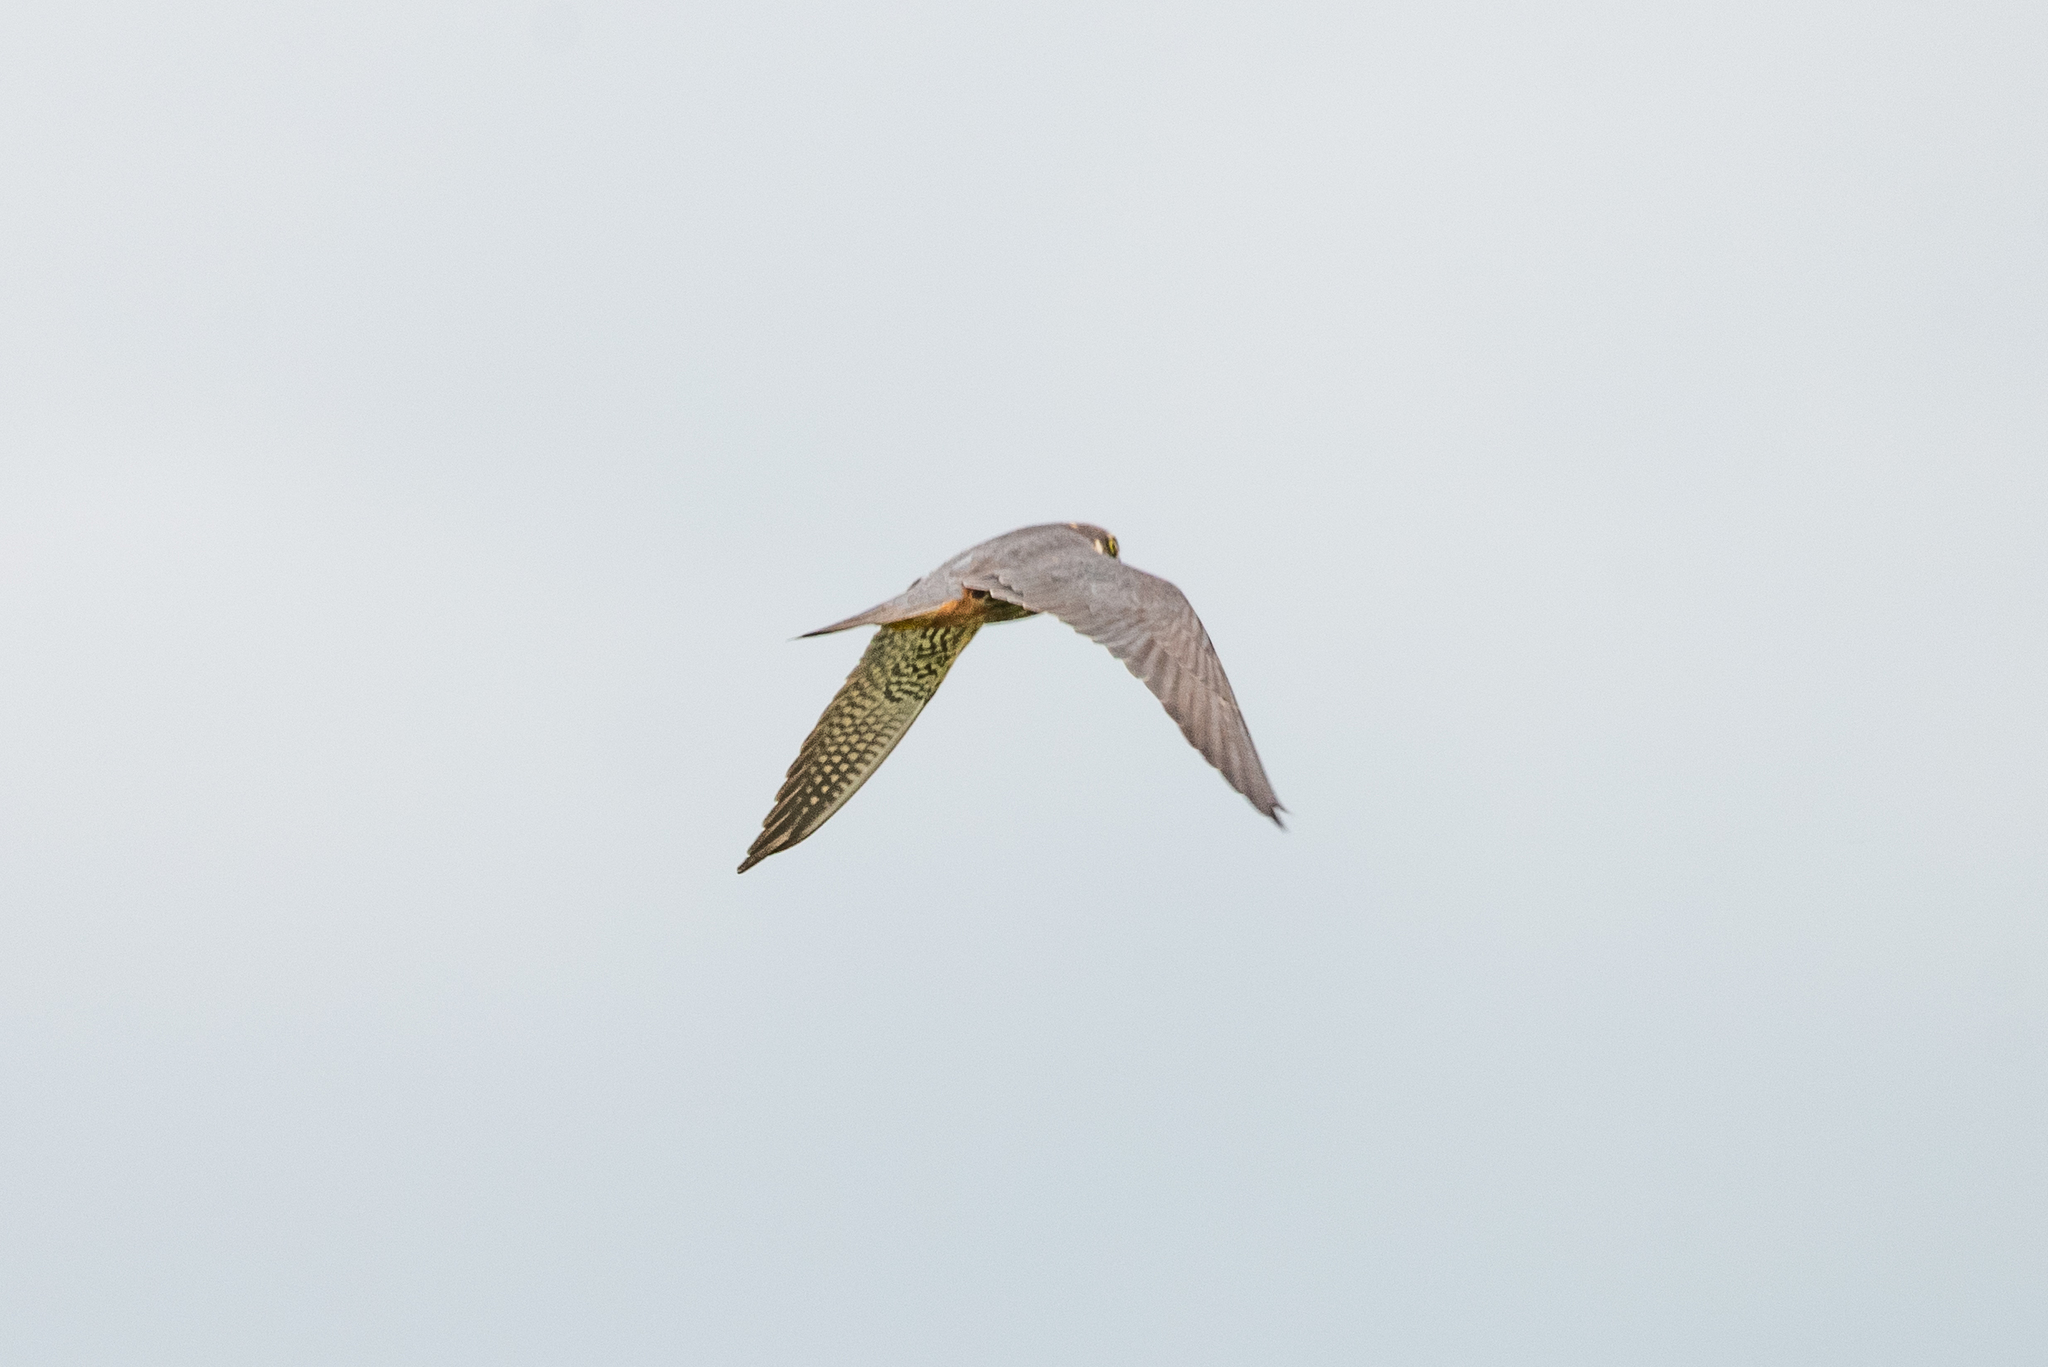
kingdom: Animalia
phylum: Chordata
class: Aves
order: Falconiformes
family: Falconidae
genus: Falco
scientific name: Falco subbuteo
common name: Eurasian hobby
